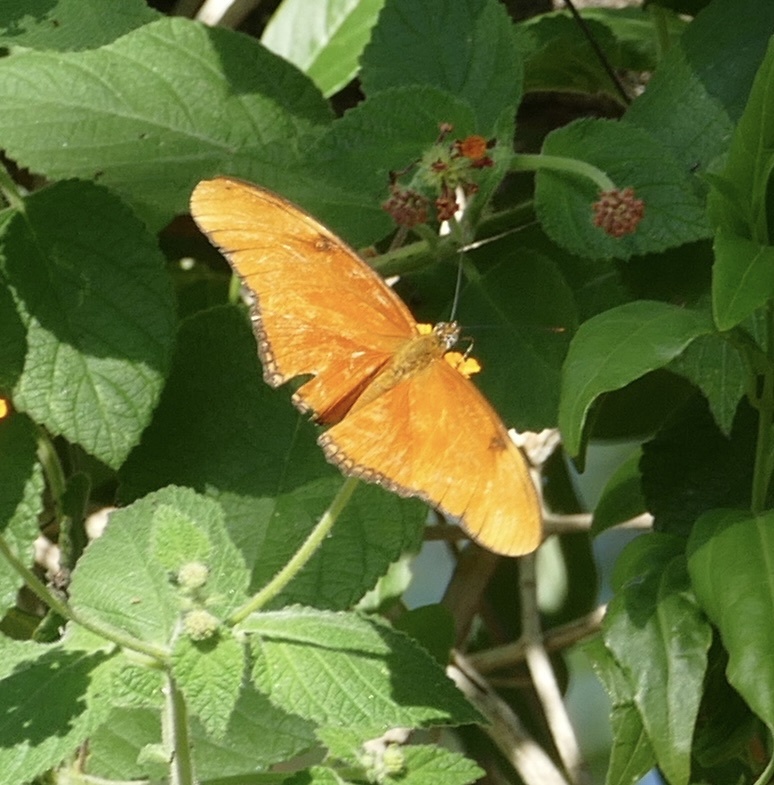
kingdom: Animalia
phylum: Arthropoda
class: Insecta
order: Lepidoptera
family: Nymphalidae
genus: Dryas
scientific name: Dryas iulia
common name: Flambeau
